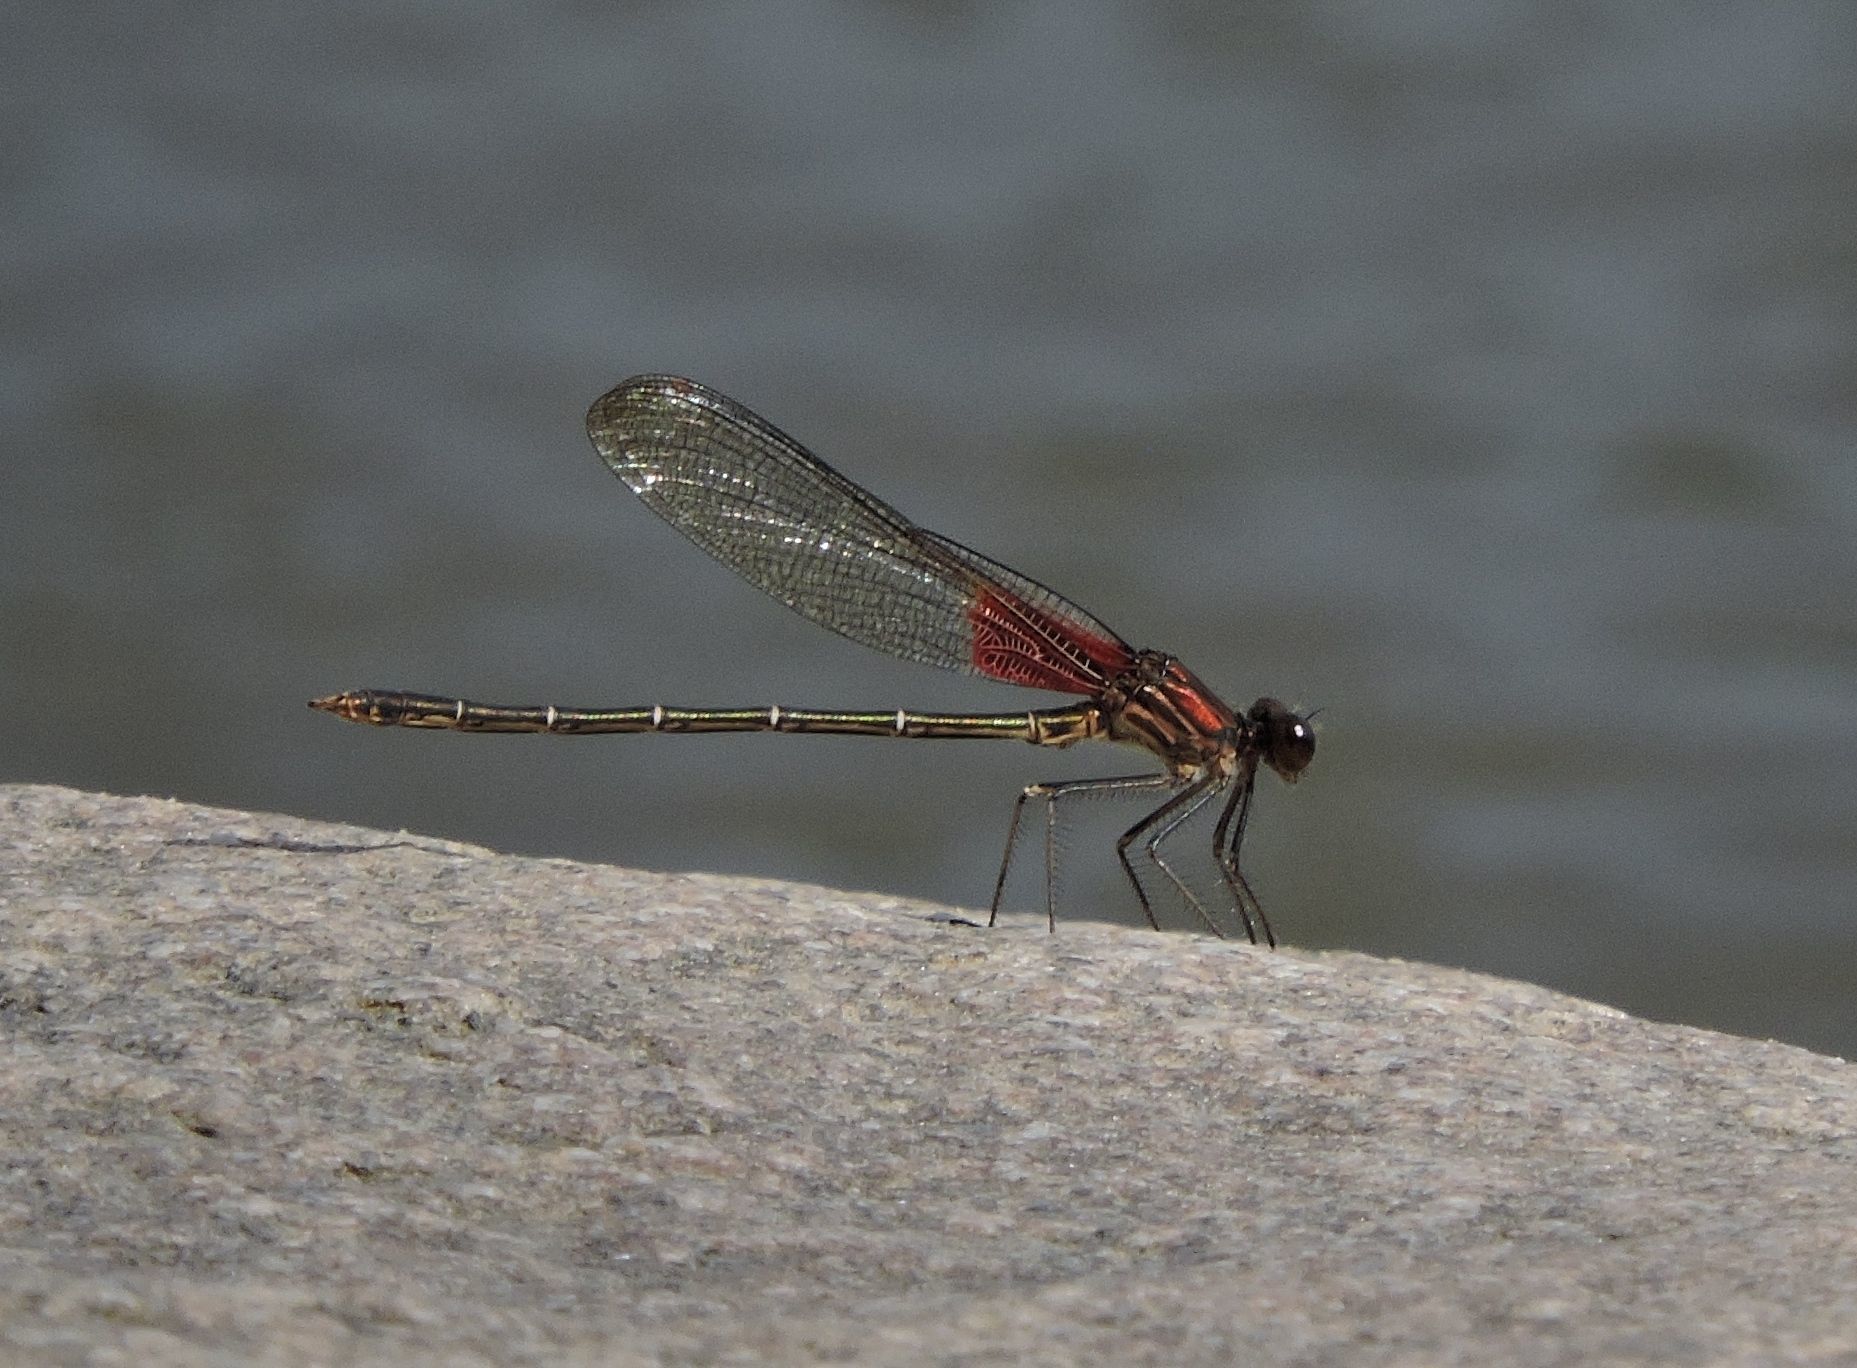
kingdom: Animalia
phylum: Arthropoda
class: Insecta
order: Odonata
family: Calopterygidae
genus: Hetaerina
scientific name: Hetaerina americana
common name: American rubyspot
